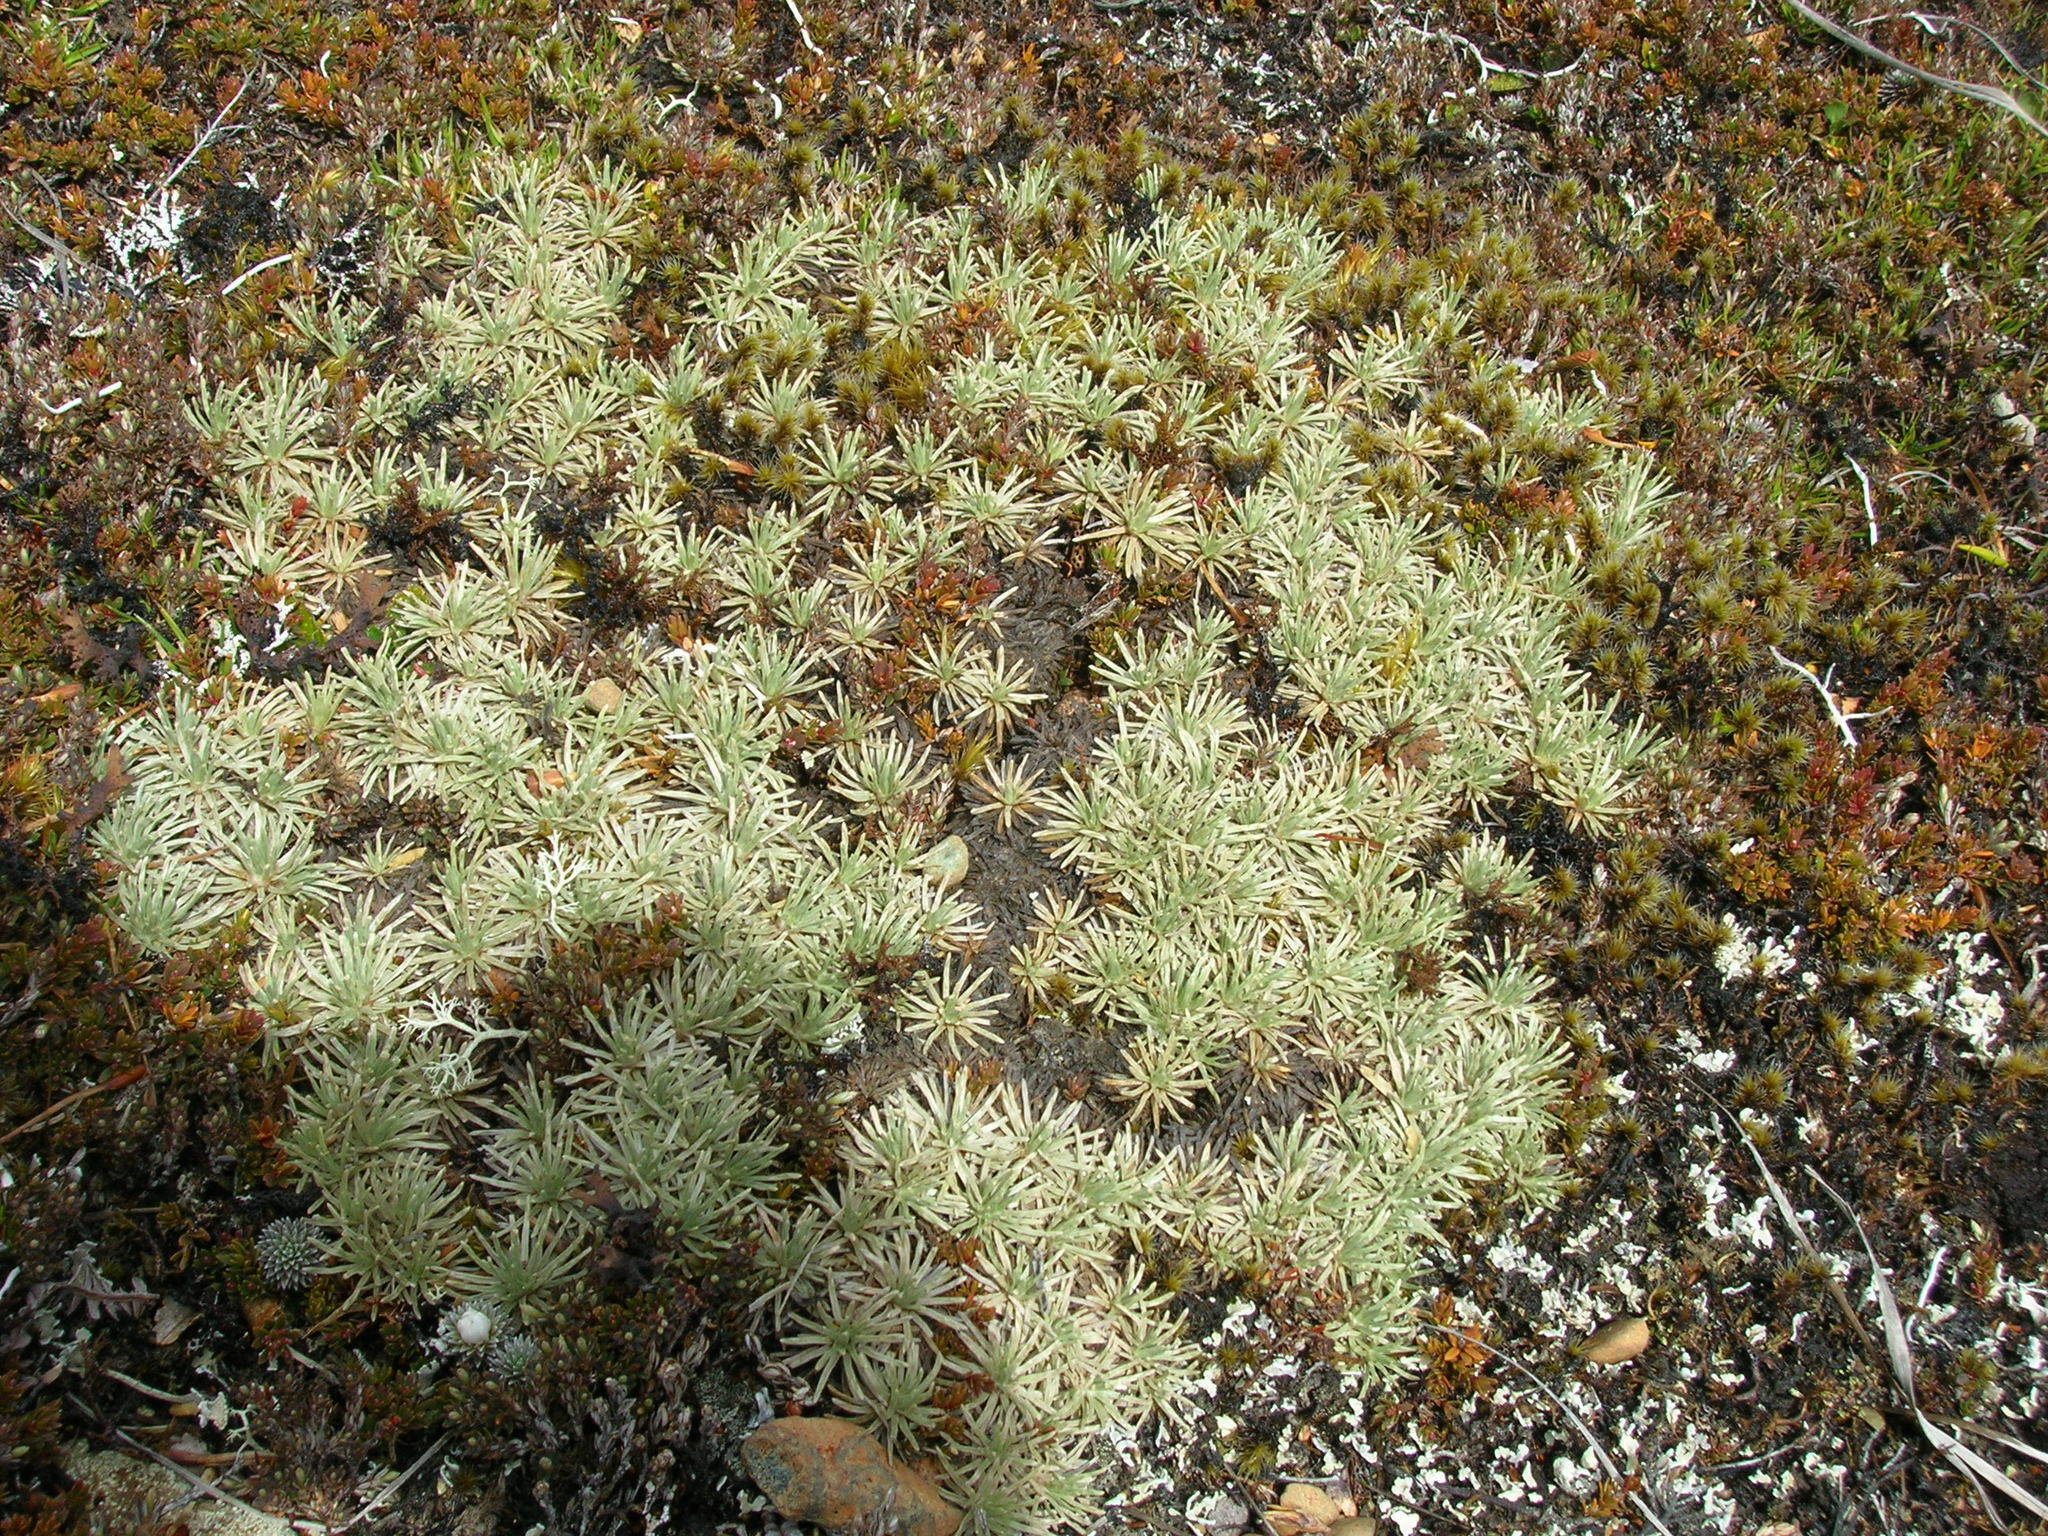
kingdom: Plantae
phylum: Tracheophyta
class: Magnoliopsida
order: Asterales
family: Asteraceae
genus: Celmisia
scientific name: Celmisia sessiliflora
